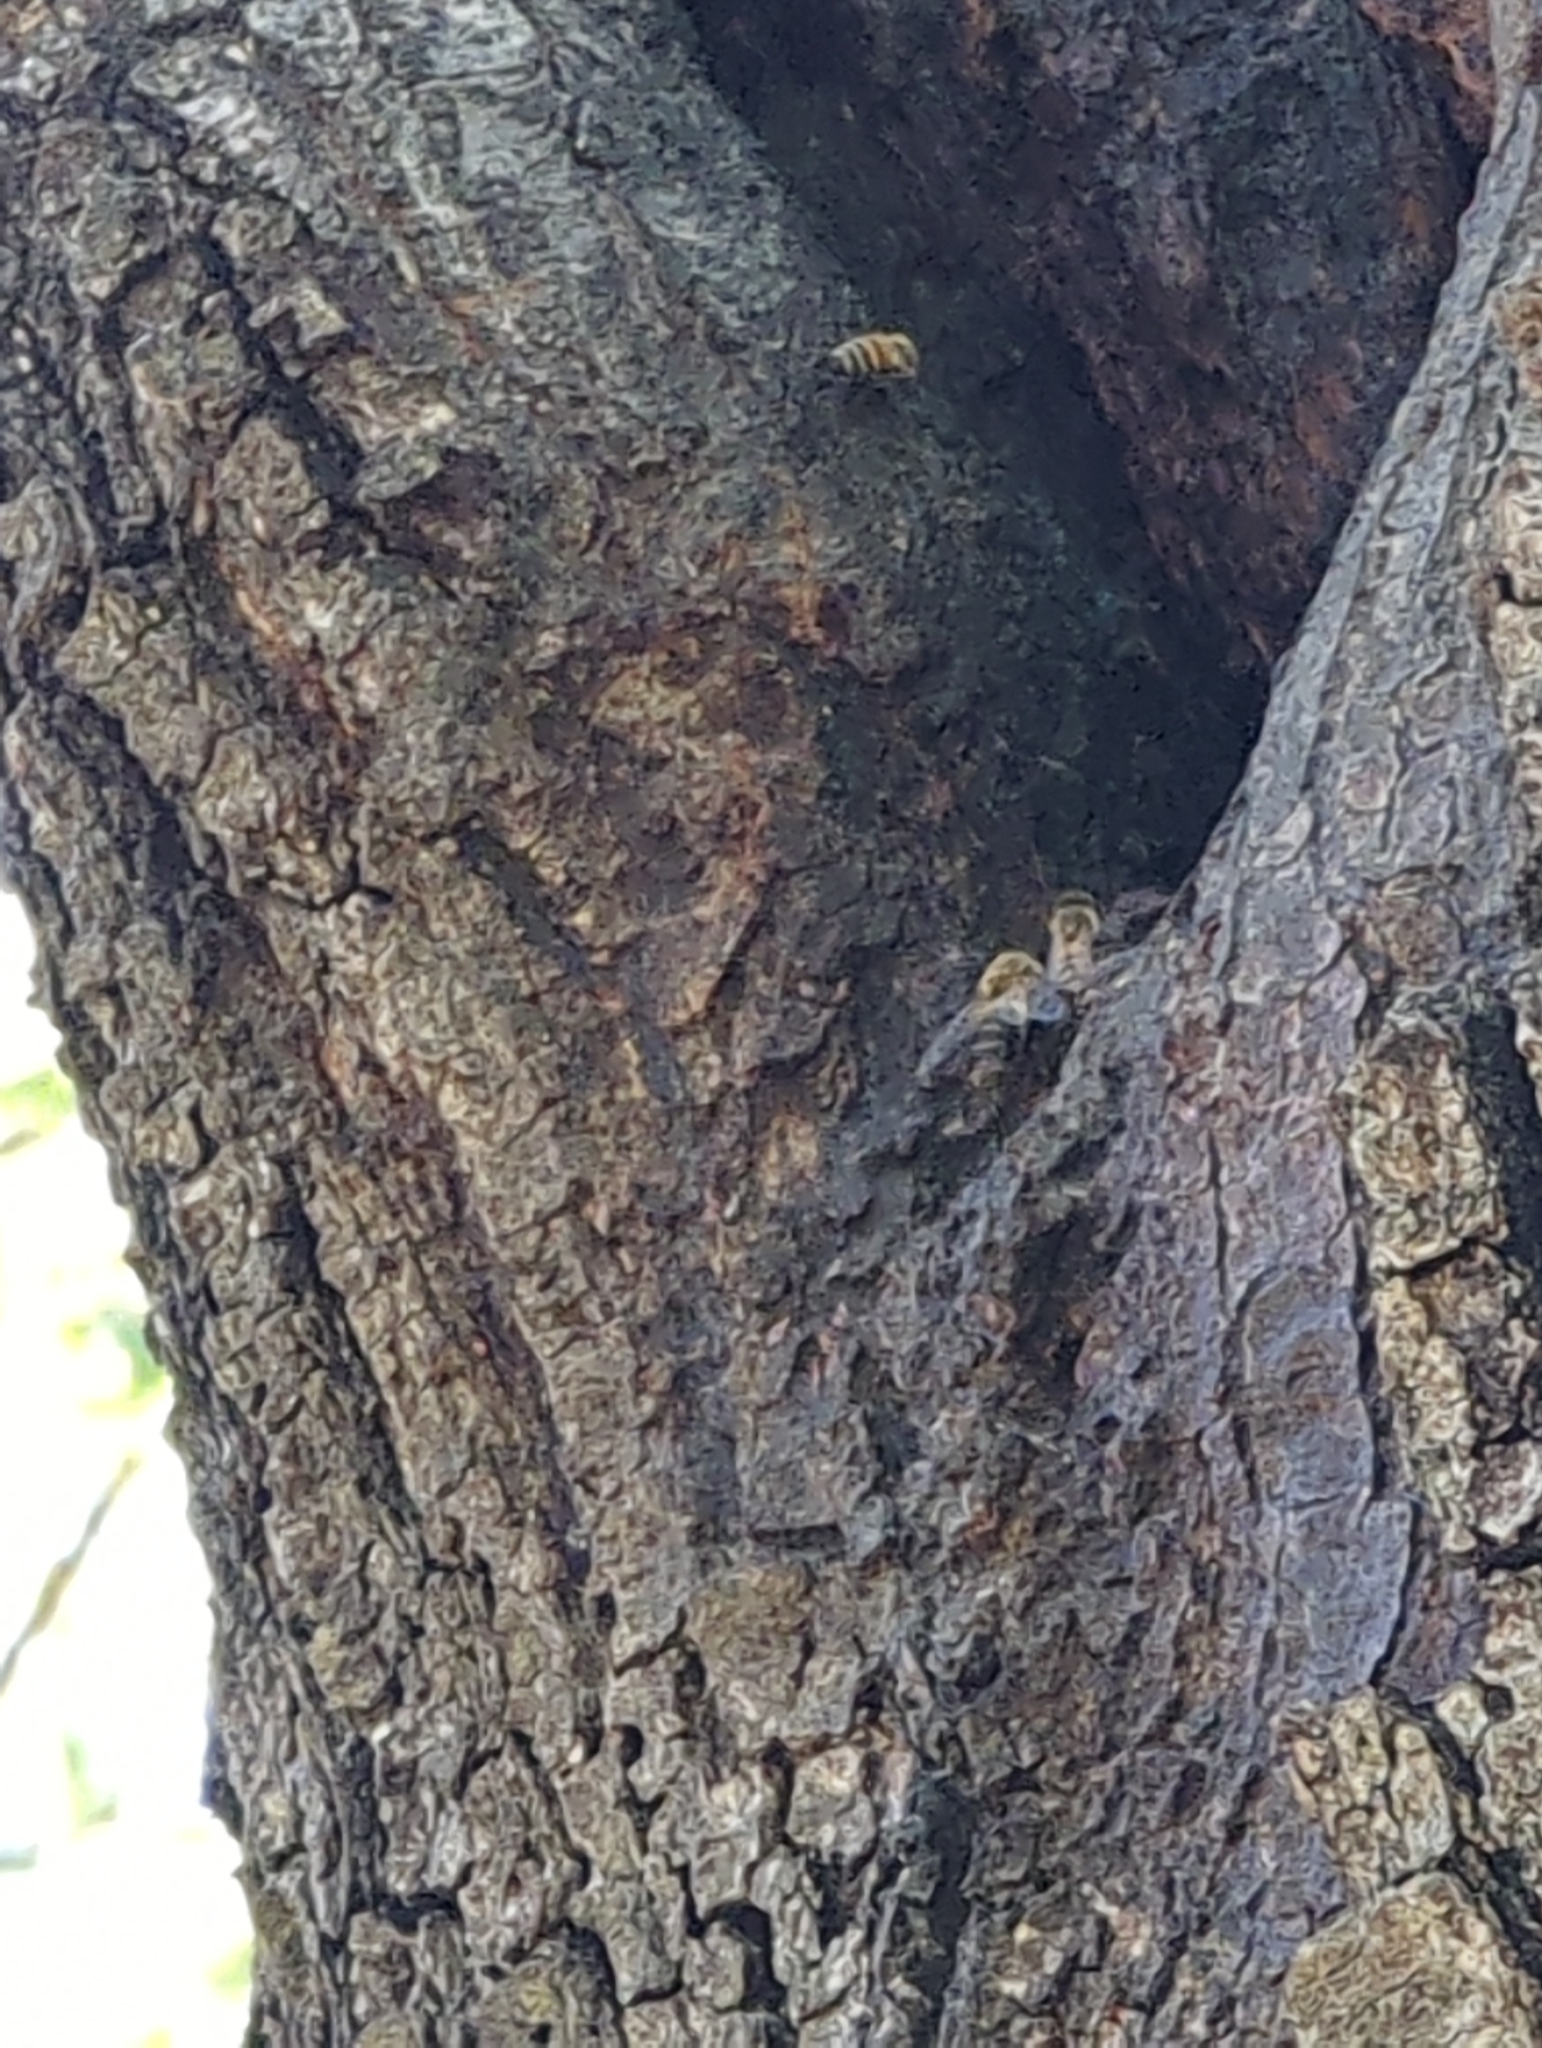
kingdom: Animalia
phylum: Arthropoda
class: Insecta
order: Hymenoptera
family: Apidae
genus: Apis
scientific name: Apis mellifera
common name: Honey bee
